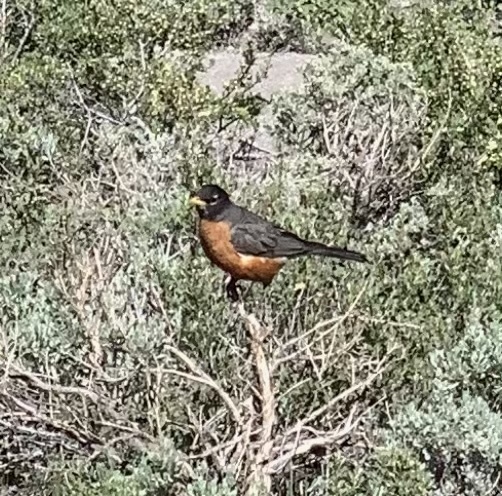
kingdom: Animalia
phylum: Chordata
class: Aves
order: Passeriformes
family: Turdidae
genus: Turdus
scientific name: Turdus migratorius
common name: American robin
